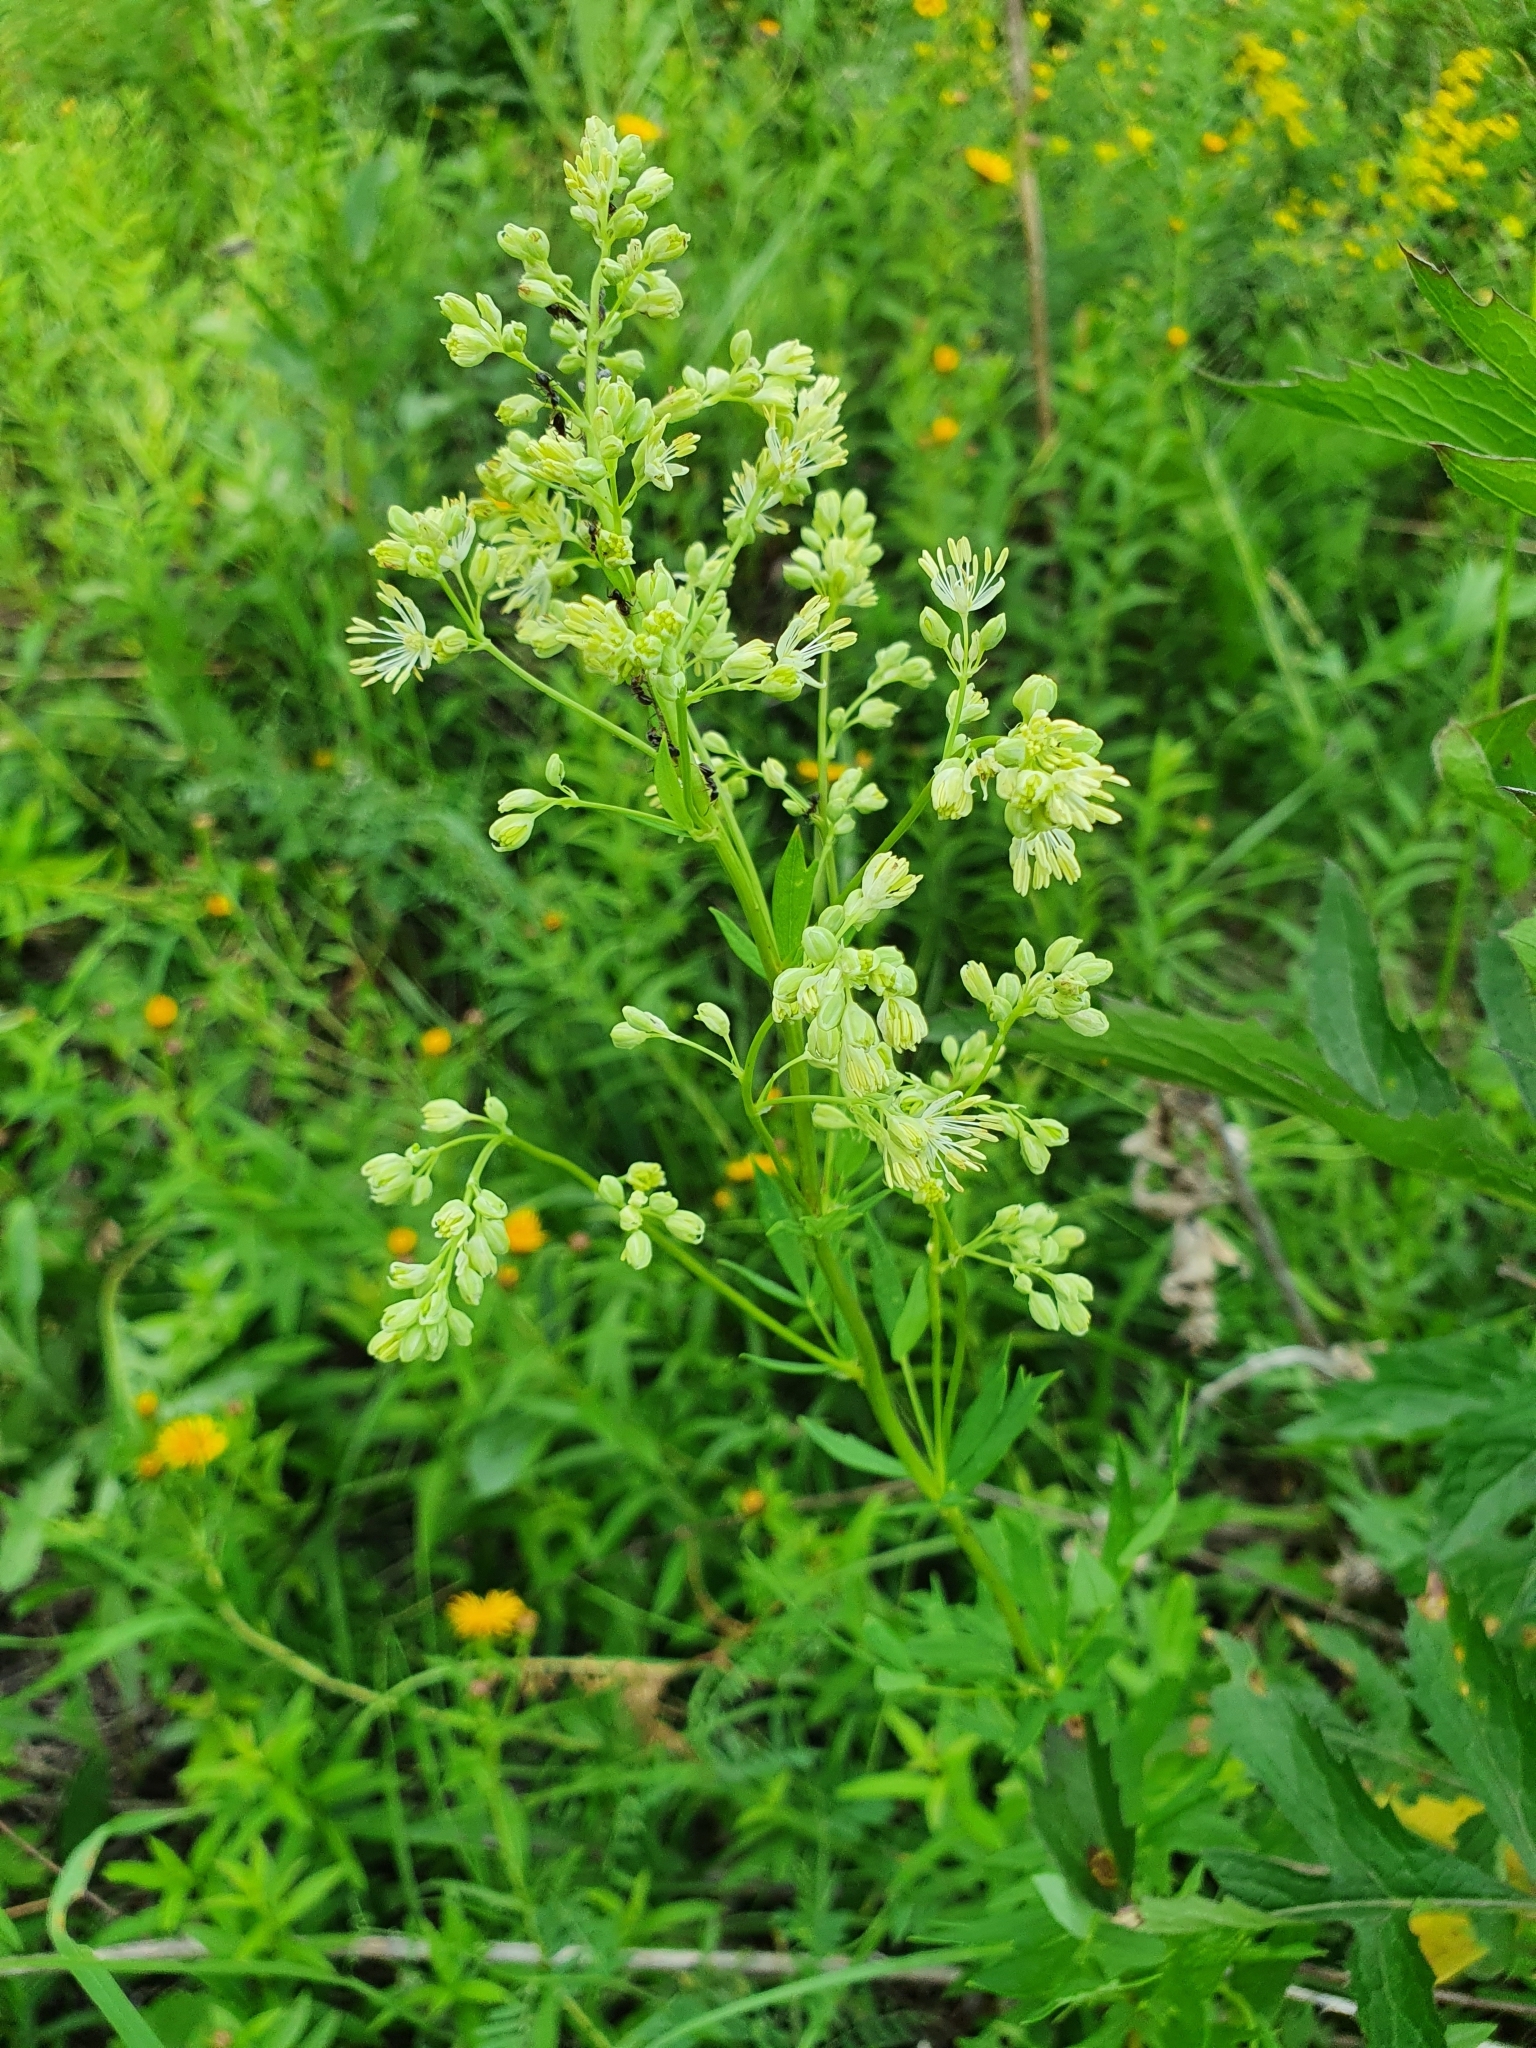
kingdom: Plantae
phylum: Tracheophyta
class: Magnoliopsida
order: Ranunculales
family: Ranunculaceae
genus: Thalictrum
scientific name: Thalictrum flavum
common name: Common meadow-rue
